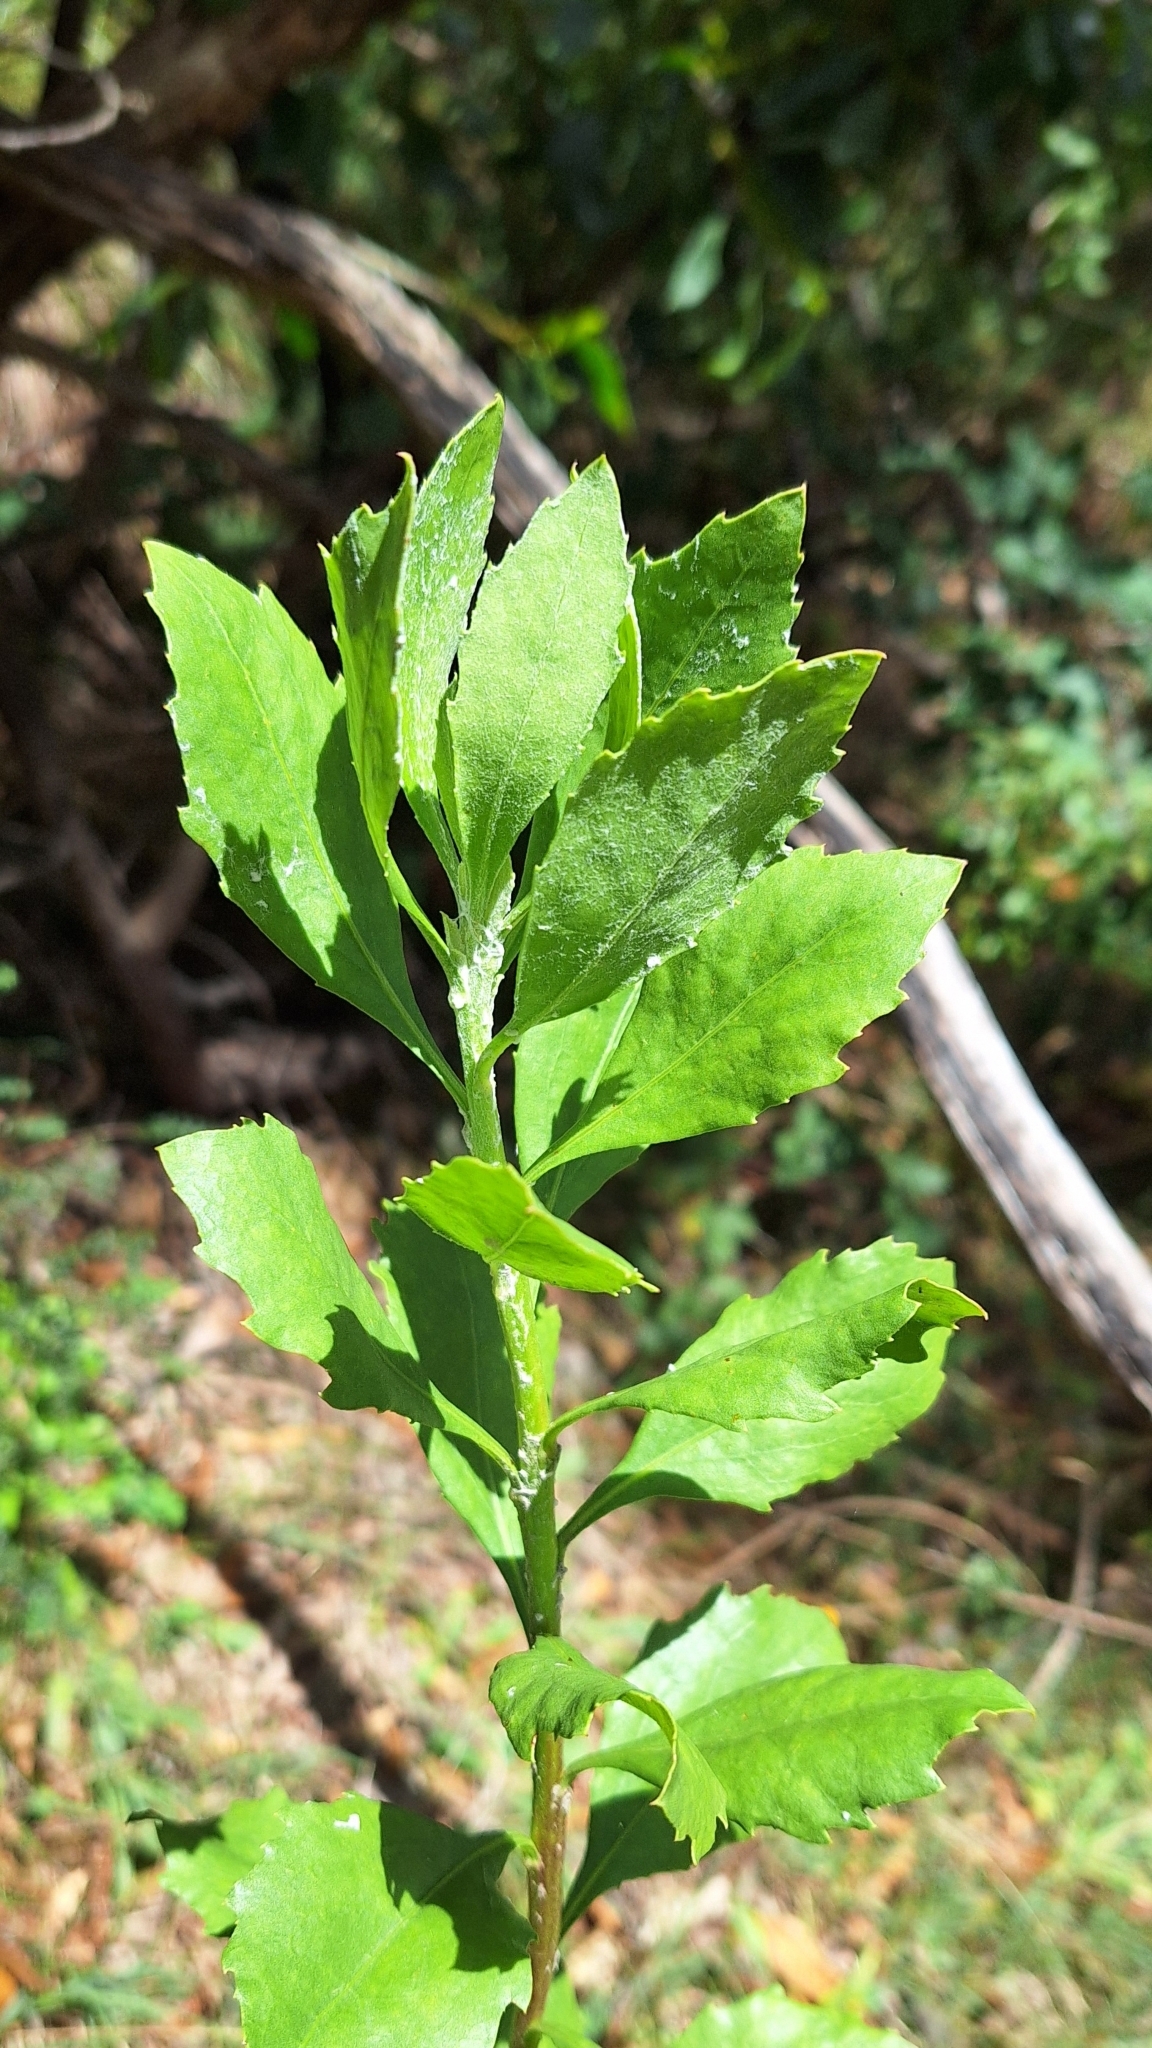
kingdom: Plantae
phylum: Tracheophyta
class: Magnoliopsida
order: Asterales
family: Asteraceae
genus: Osteospermum
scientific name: Osteospermum moniliferum
